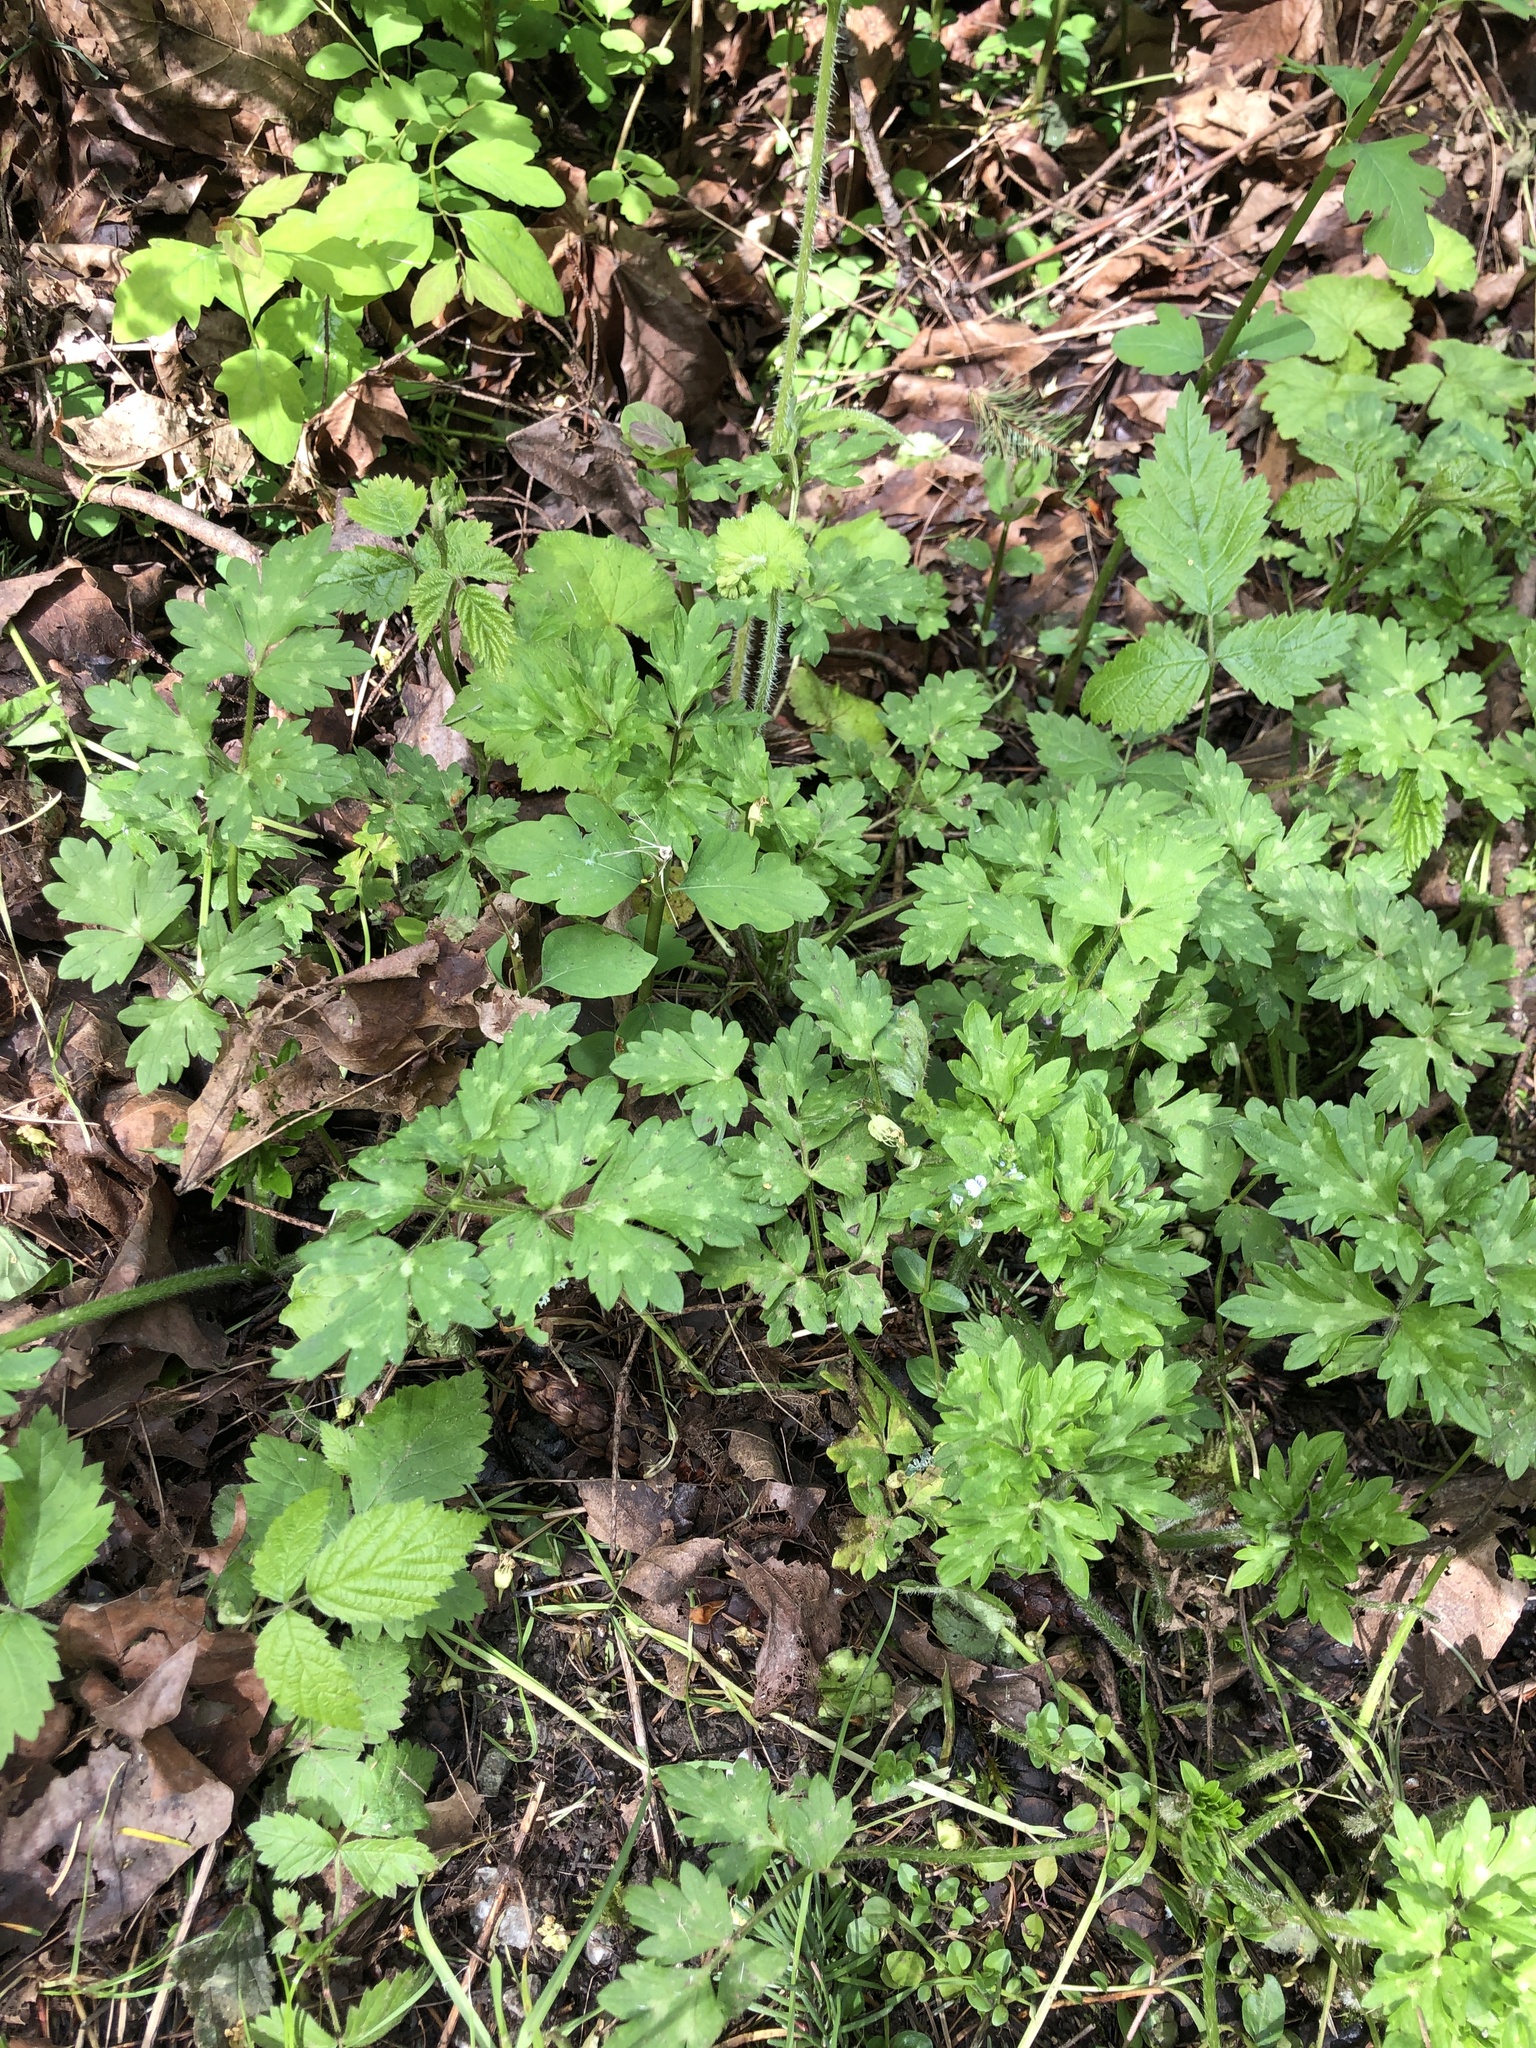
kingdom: Plantae
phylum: Tracheophyta
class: Magnoliopsida
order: Ranunculales
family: Ranunculaceae
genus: Ranunculus
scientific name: Ranunculus repens
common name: Creeping buttercup
